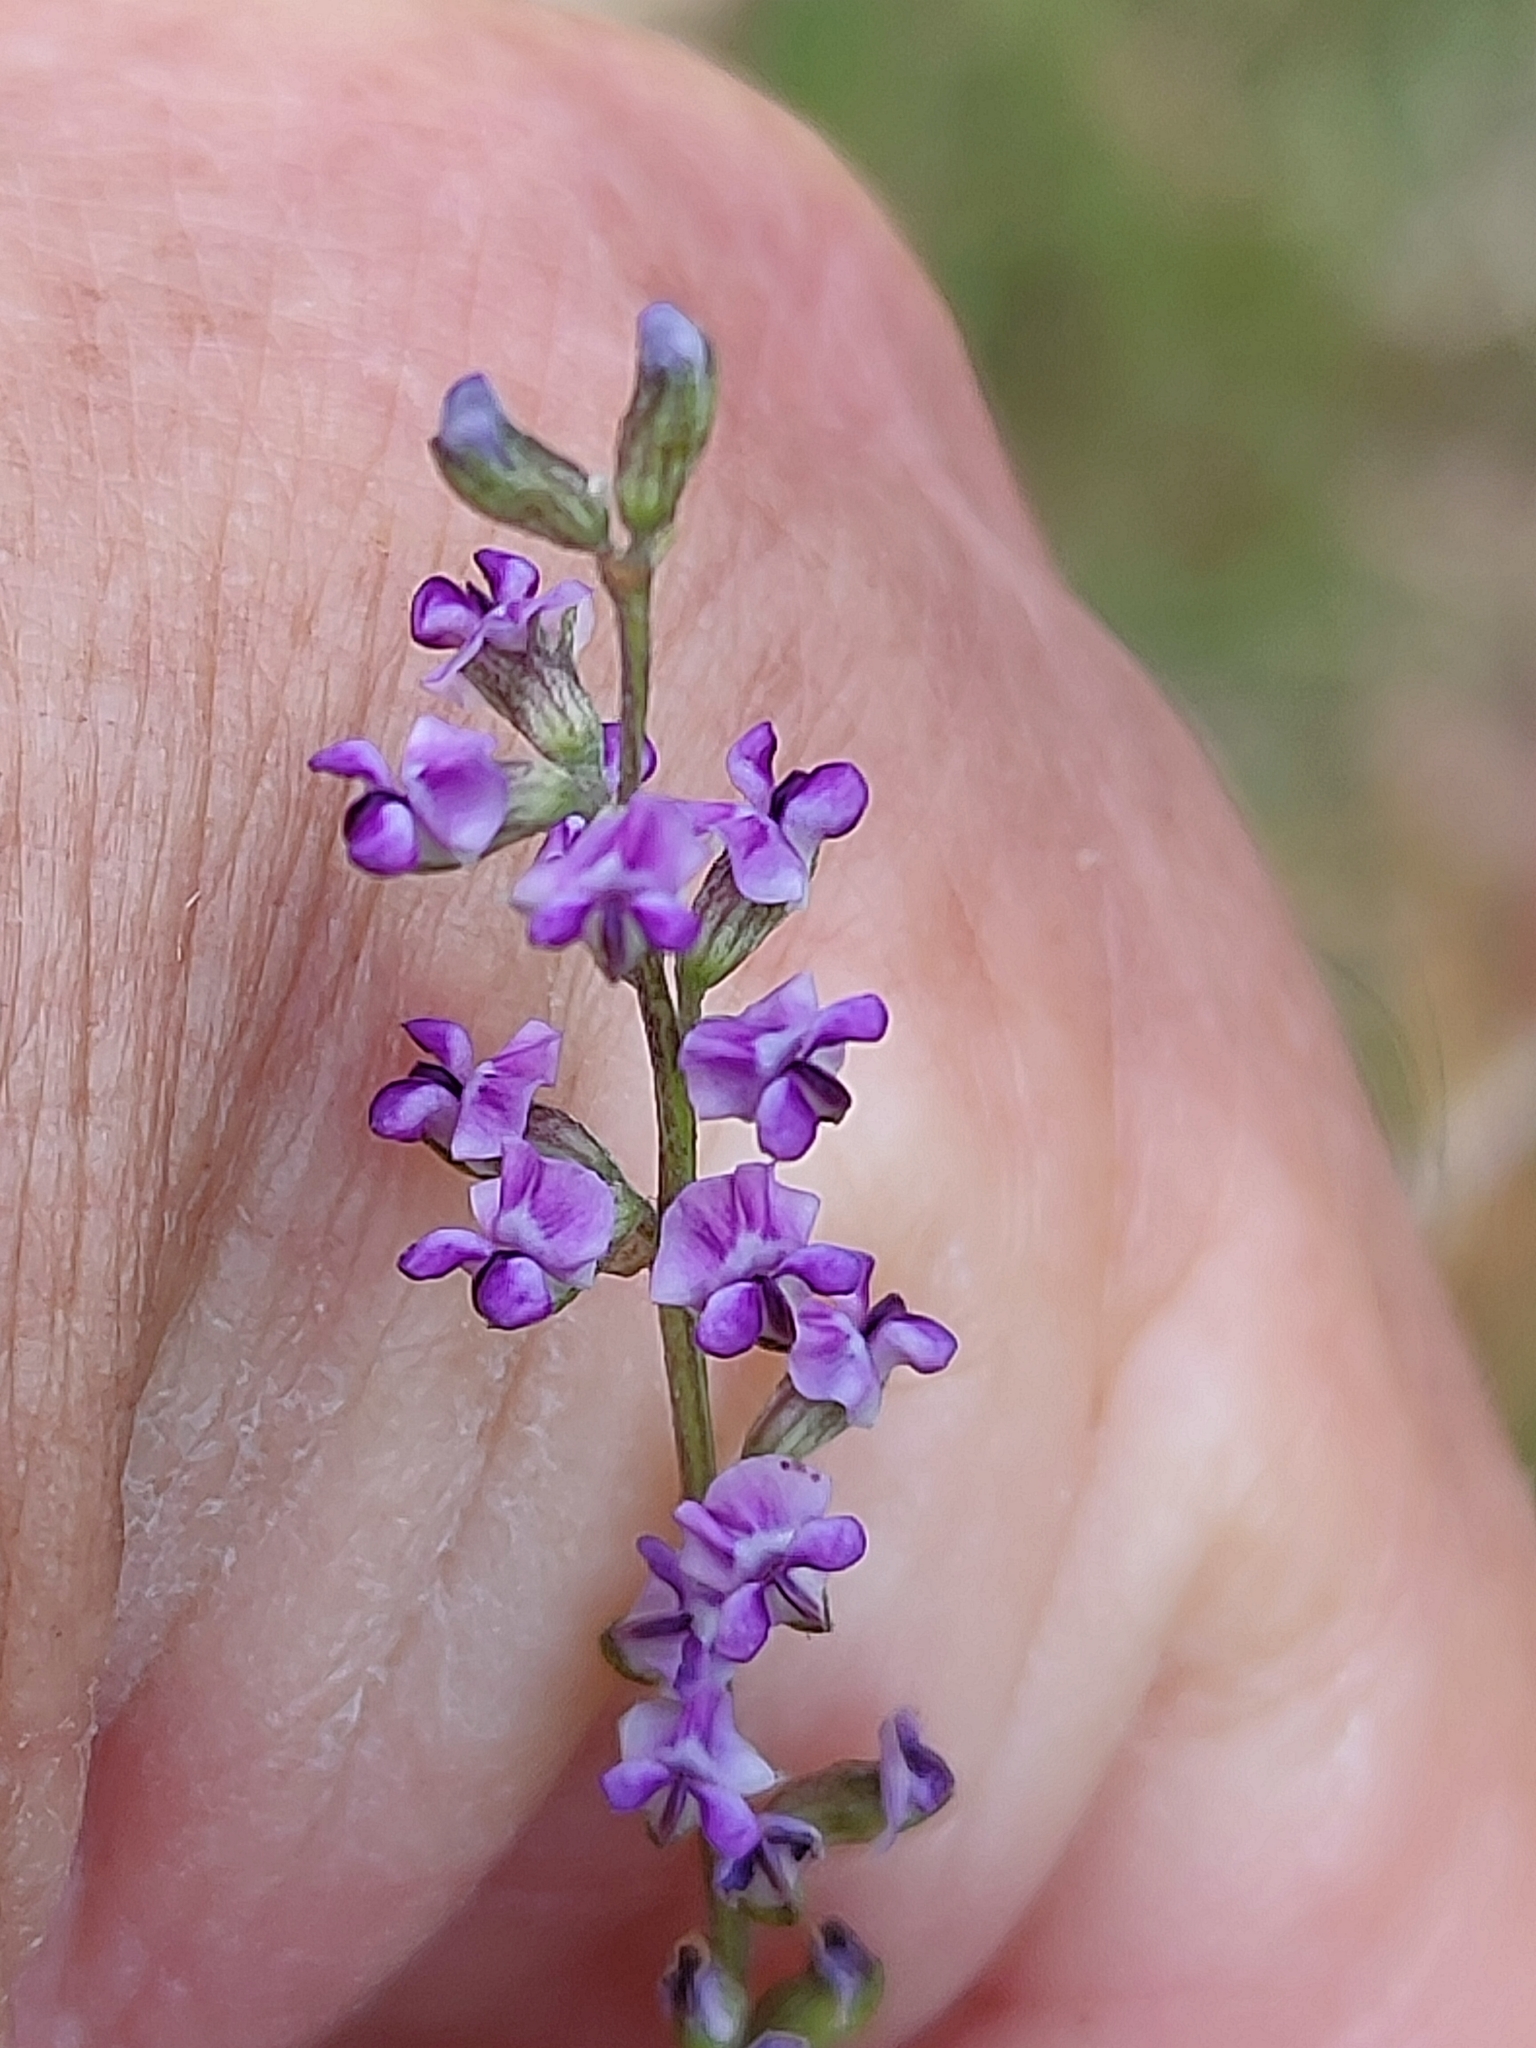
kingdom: Plantae
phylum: Tracheophyta
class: Magnoliopsida
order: Fabales
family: Fabaceae
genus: Cullen
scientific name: Cullen tenax
